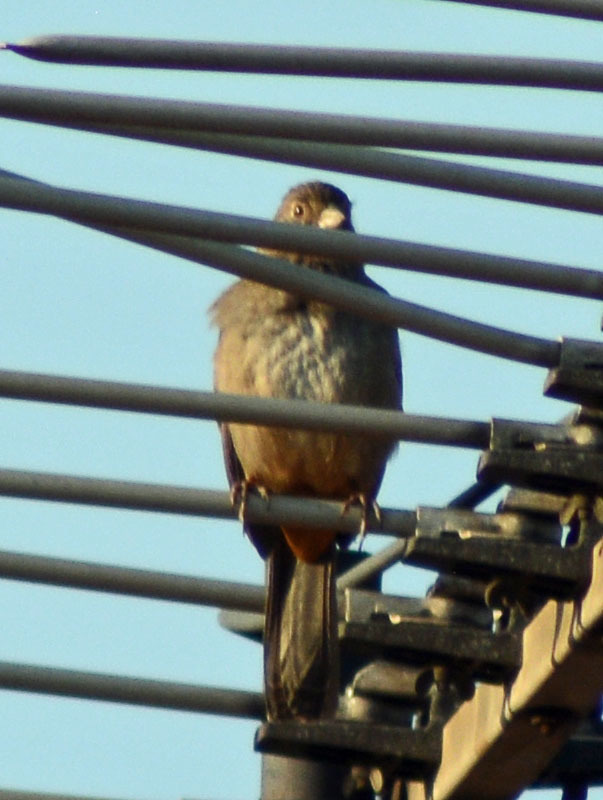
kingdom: Animalia
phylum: Chordata
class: Aves
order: Passeriformes
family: Passerellidae
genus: Melozone
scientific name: Melozone fusca
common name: Canyon towhee
